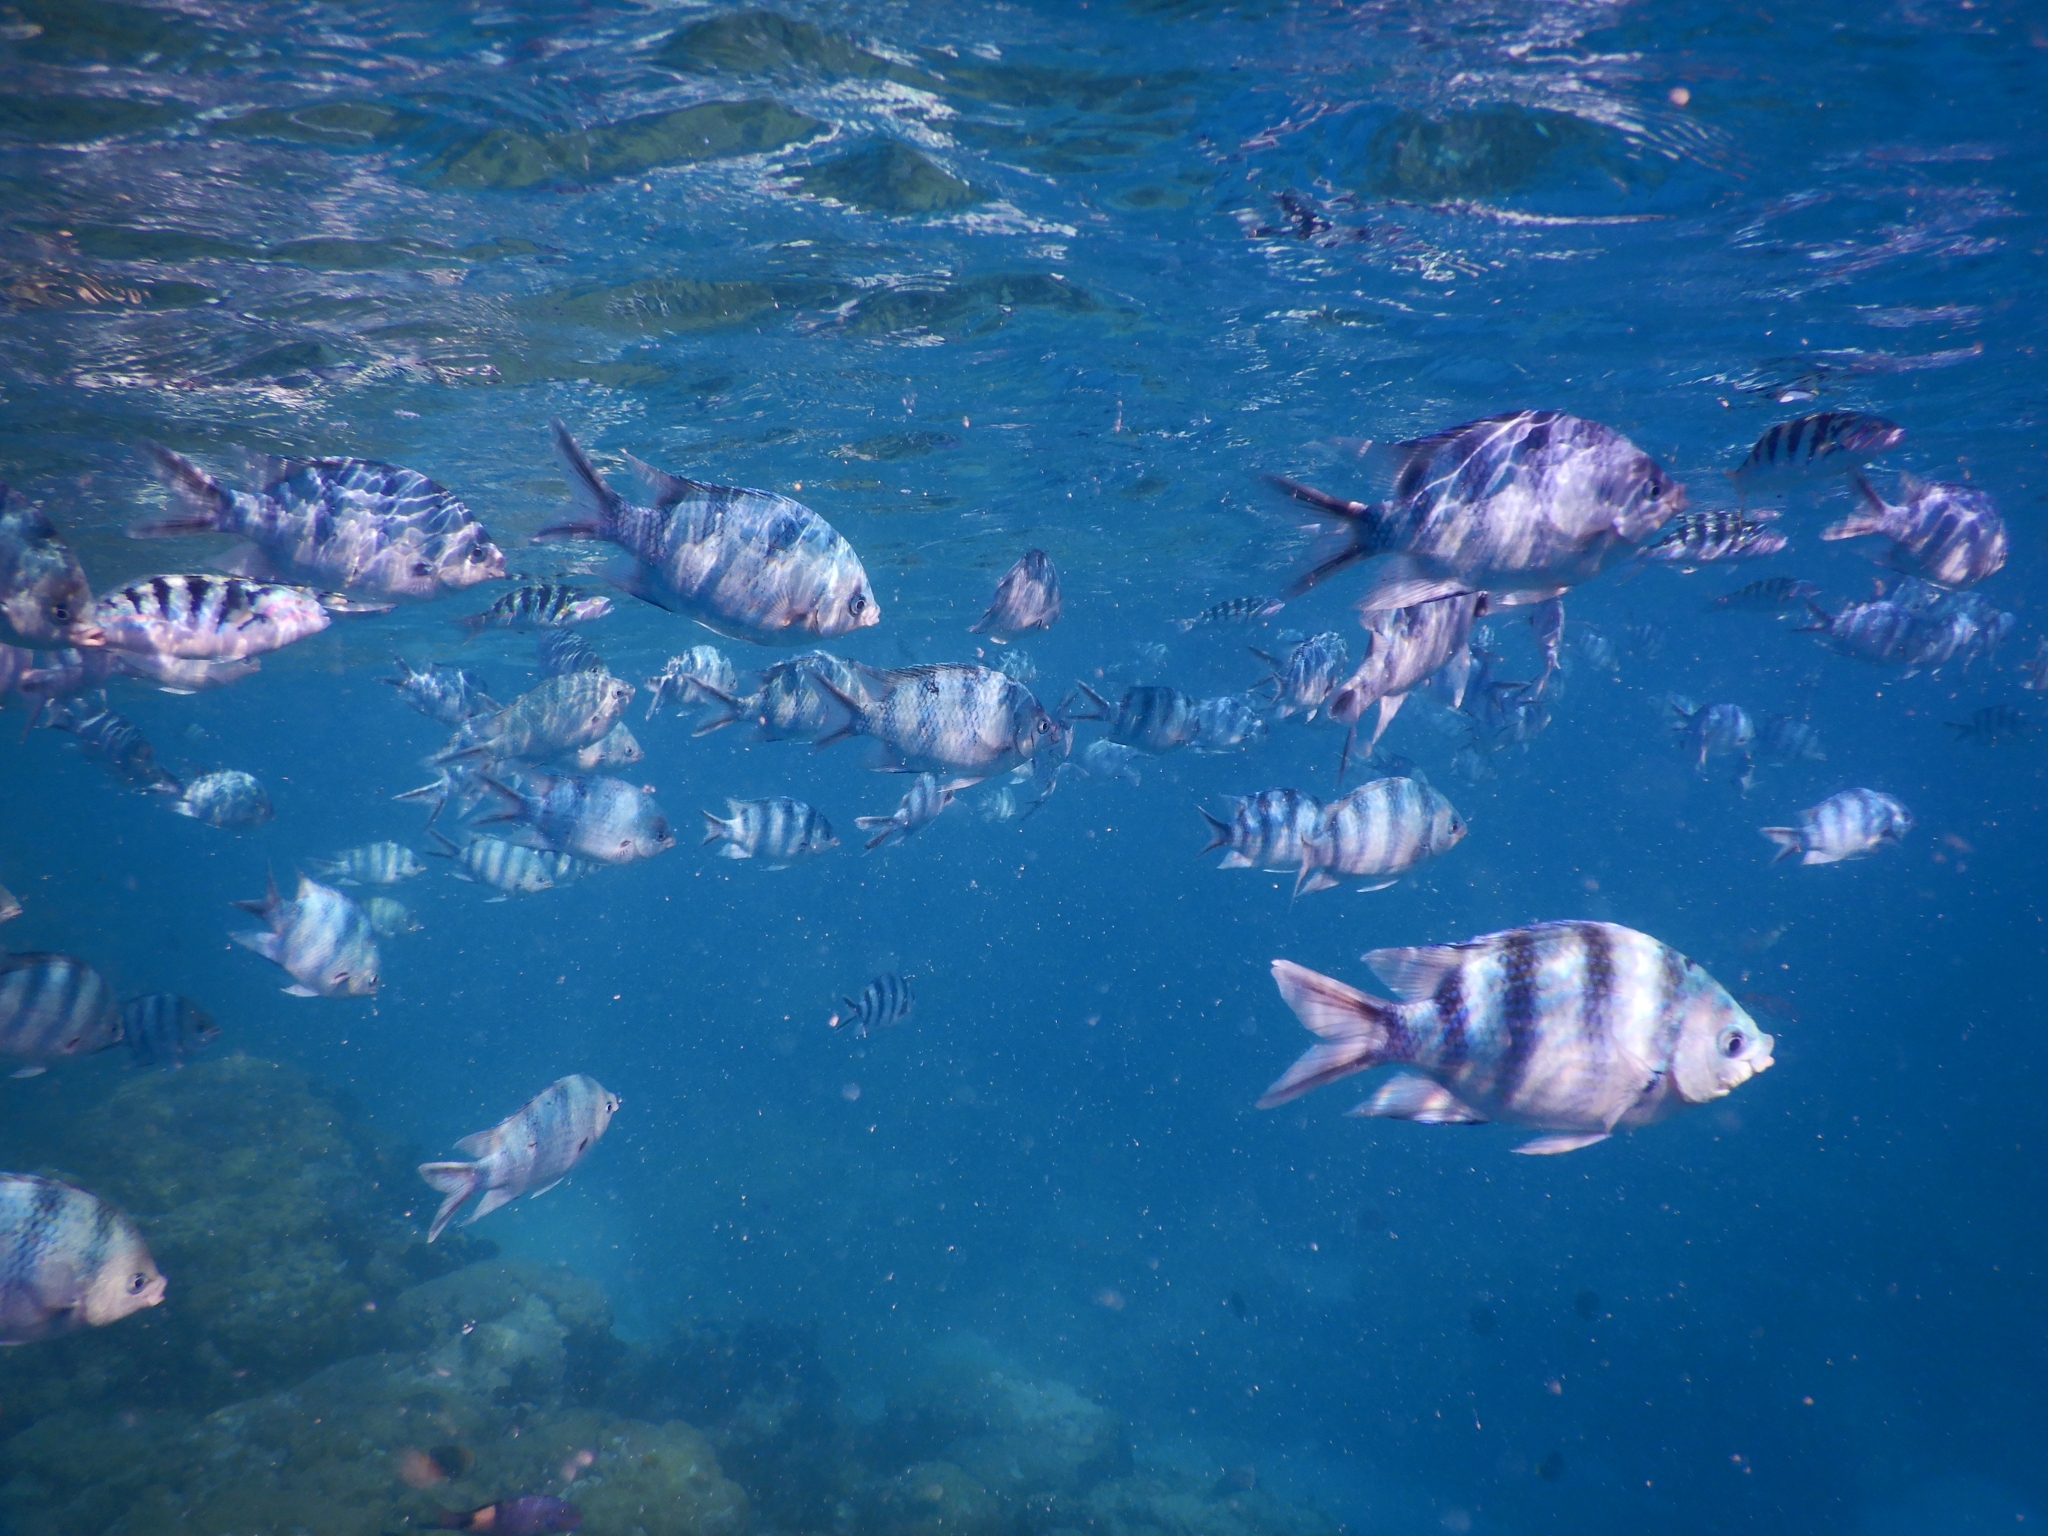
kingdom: Animalia
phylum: Chordata
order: Perciformes
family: Pomacentridae
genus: Abudefduf
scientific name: Abudefduf sexfasciatus
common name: Scissortail sergeant
